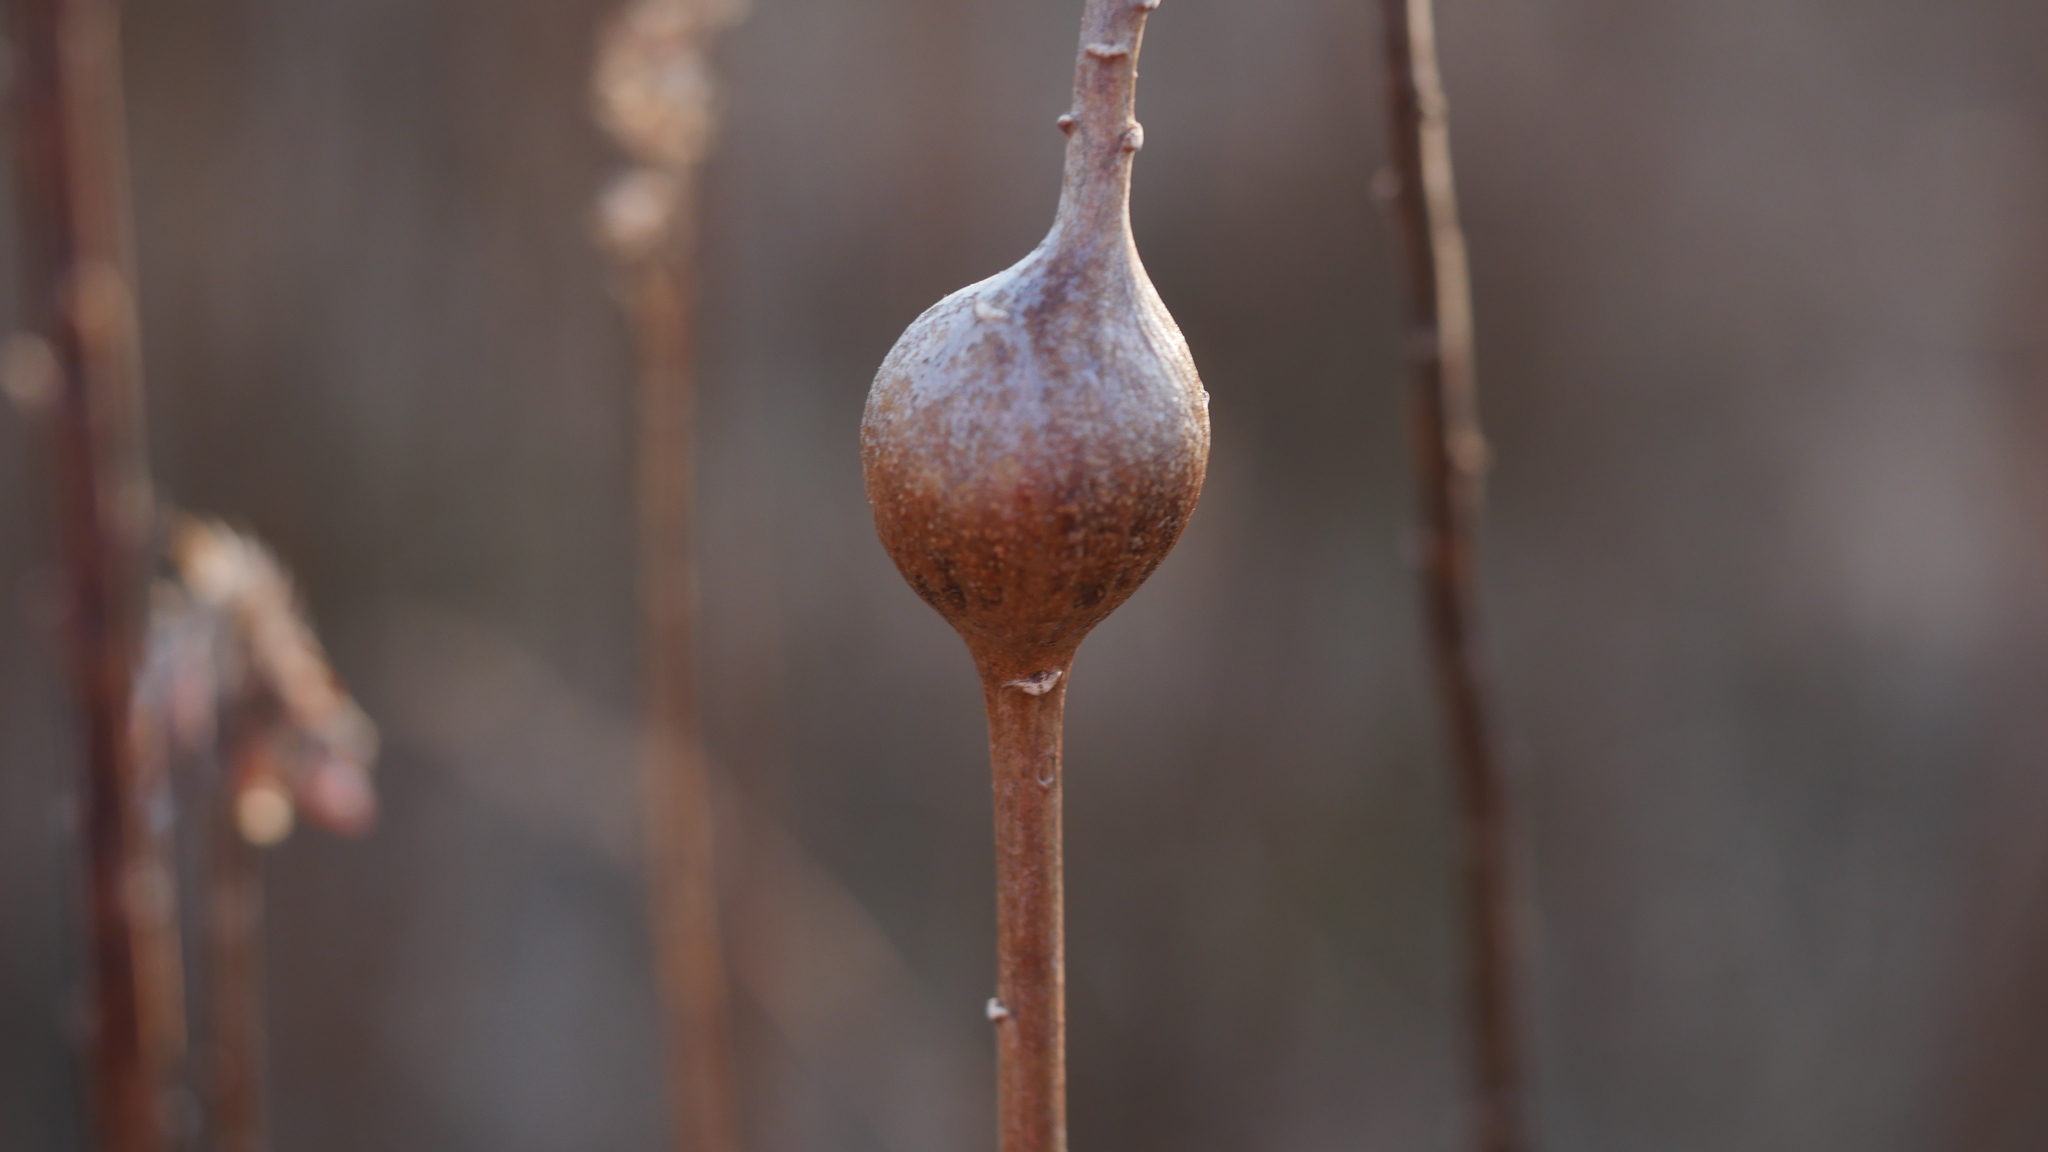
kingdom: Animalia
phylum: Arthropoda
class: Insecta
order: Diptera
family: Tephritidae
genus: Eurosta
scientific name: Eurosta solidaginis
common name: Goldenrod gall fly
